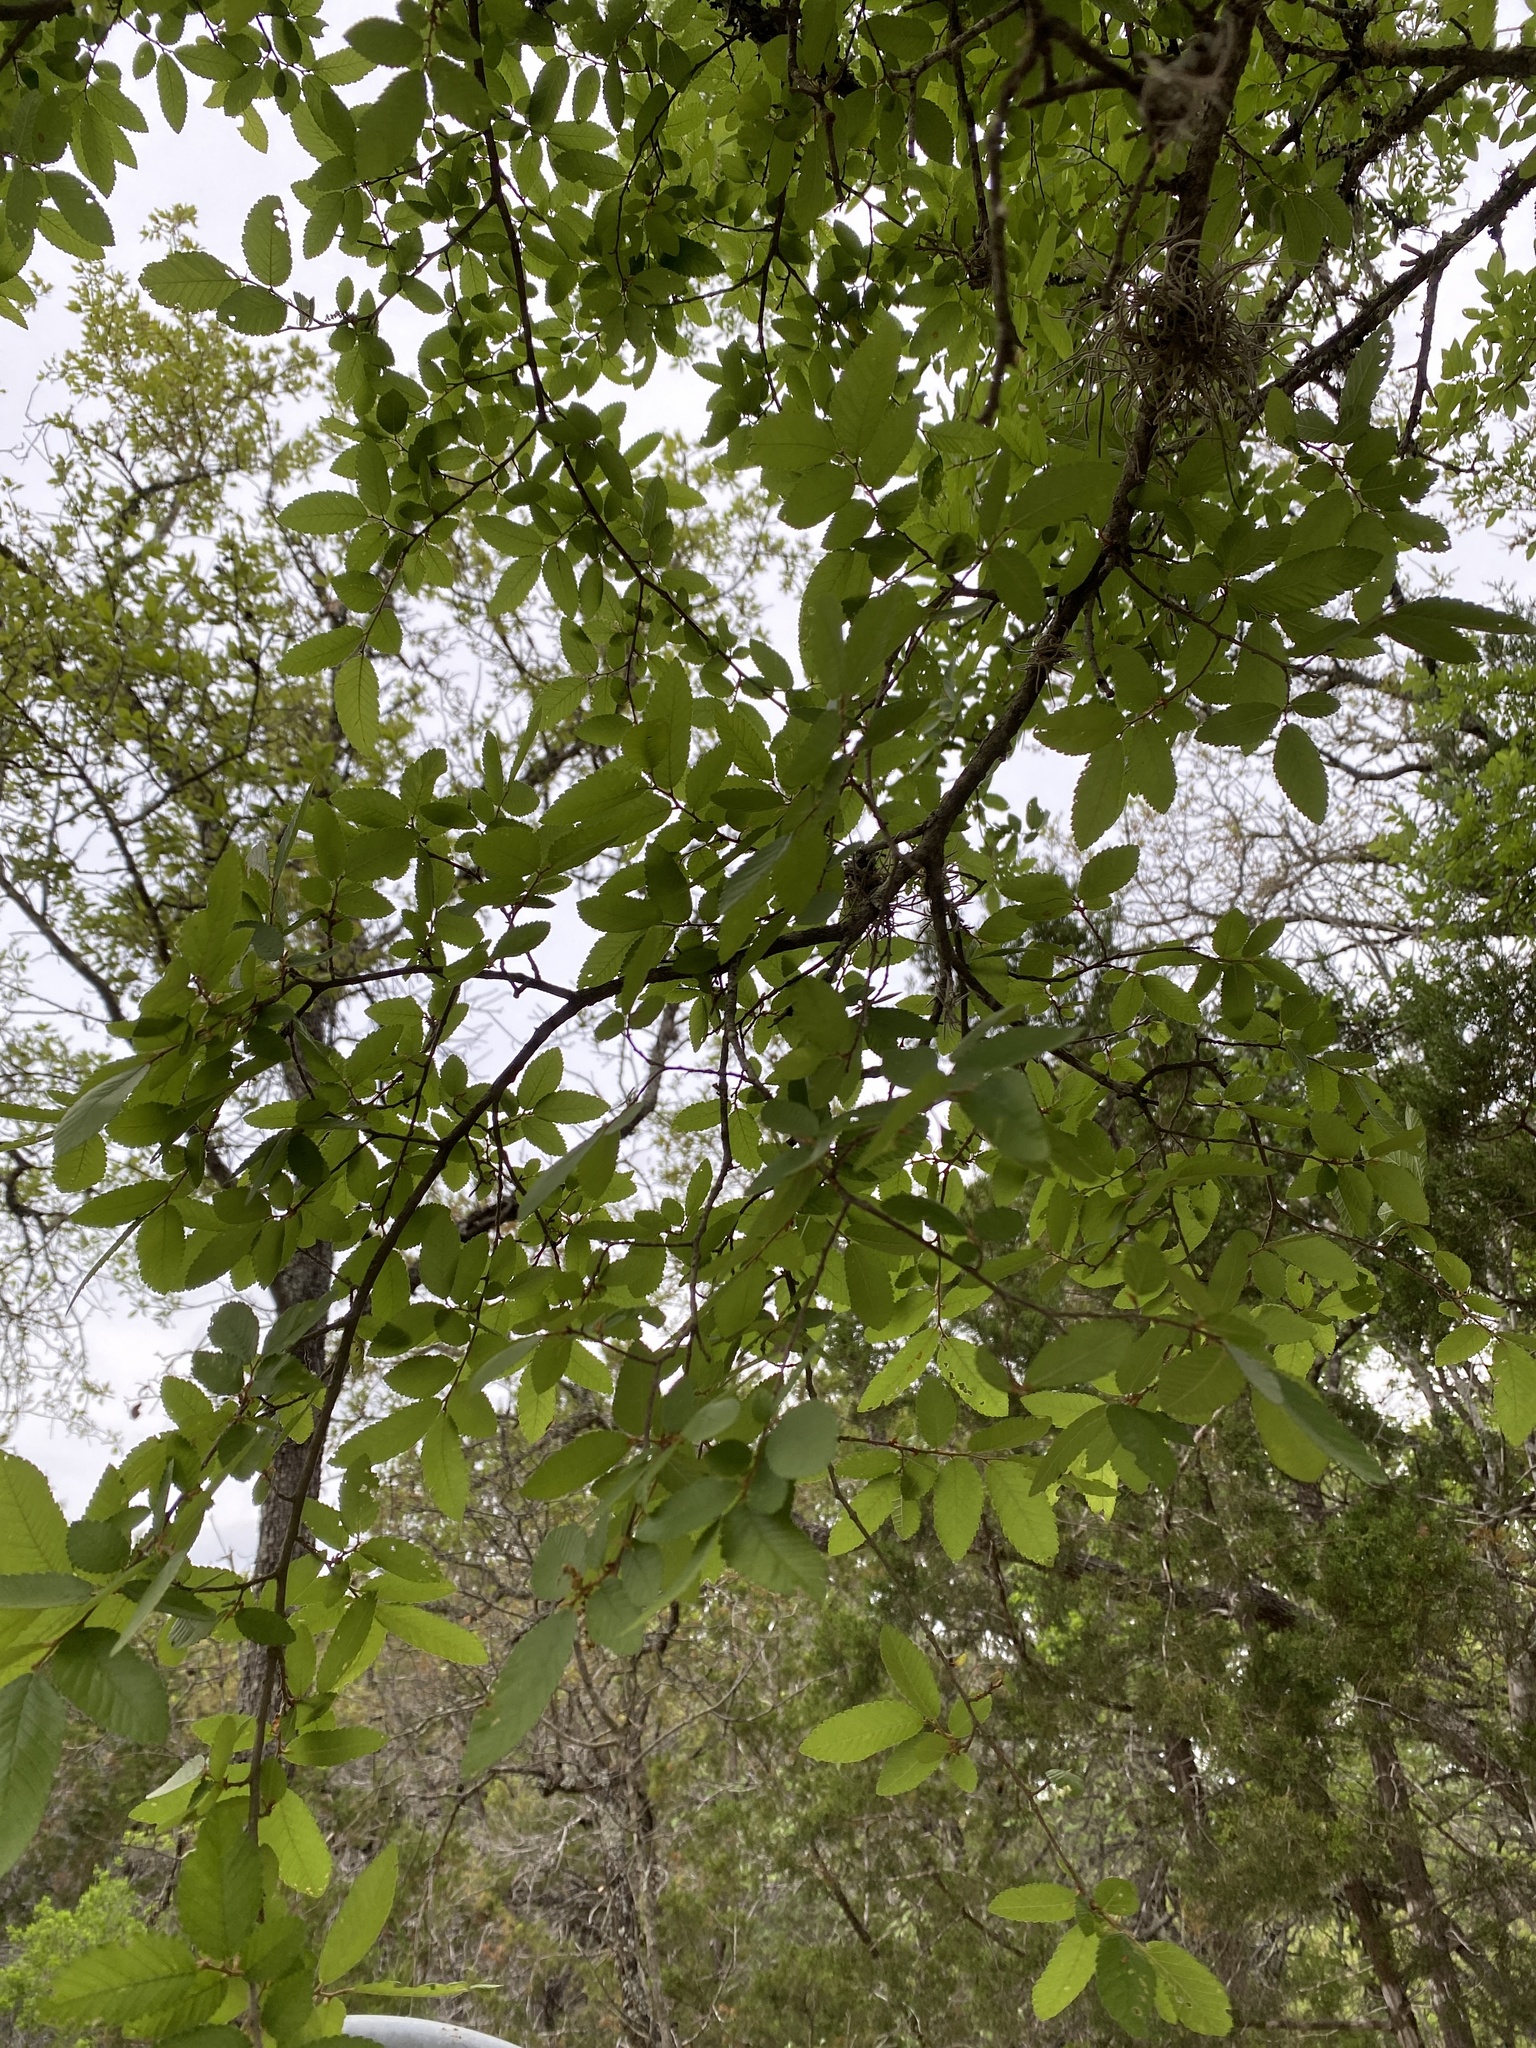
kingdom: Plantae
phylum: Tracheophyta
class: Magnoliopsida
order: Rosales
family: Ulmaceae
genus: Ulmus
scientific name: Ulmus crassifolia
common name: Basket elm
